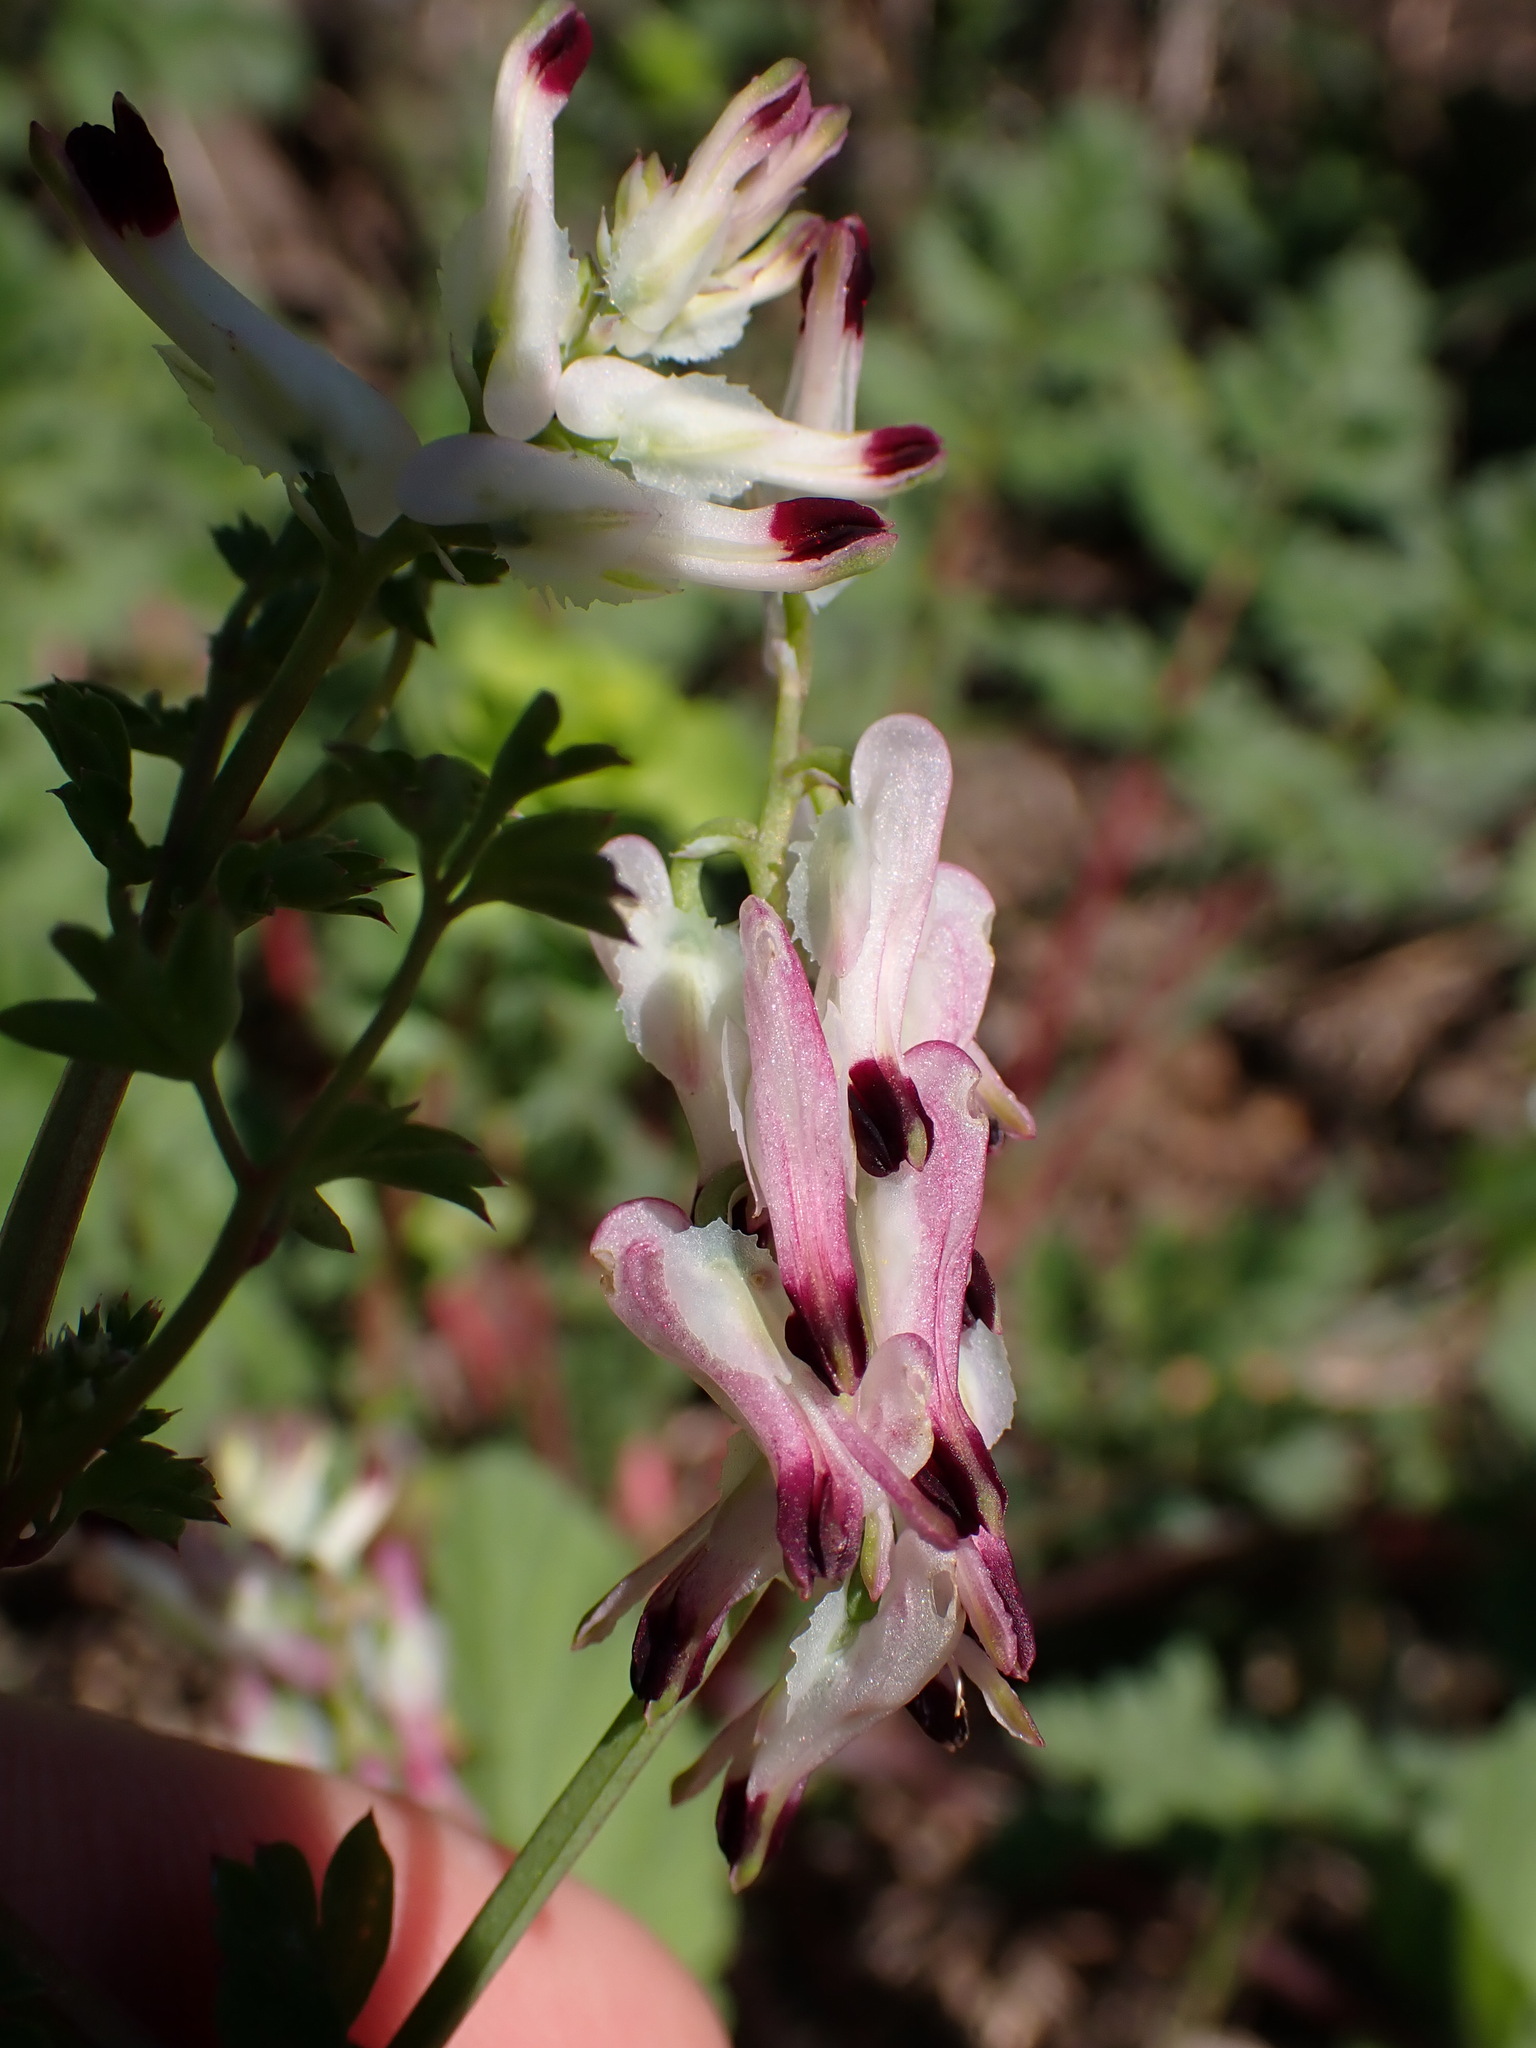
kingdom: Plantae
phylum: Tracheophyta
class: Magnoliopsida
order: Ranunculales
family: Papaveraceae
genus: Fumaria
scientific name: Fumaria capreolata
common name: White ramping-fumitory
